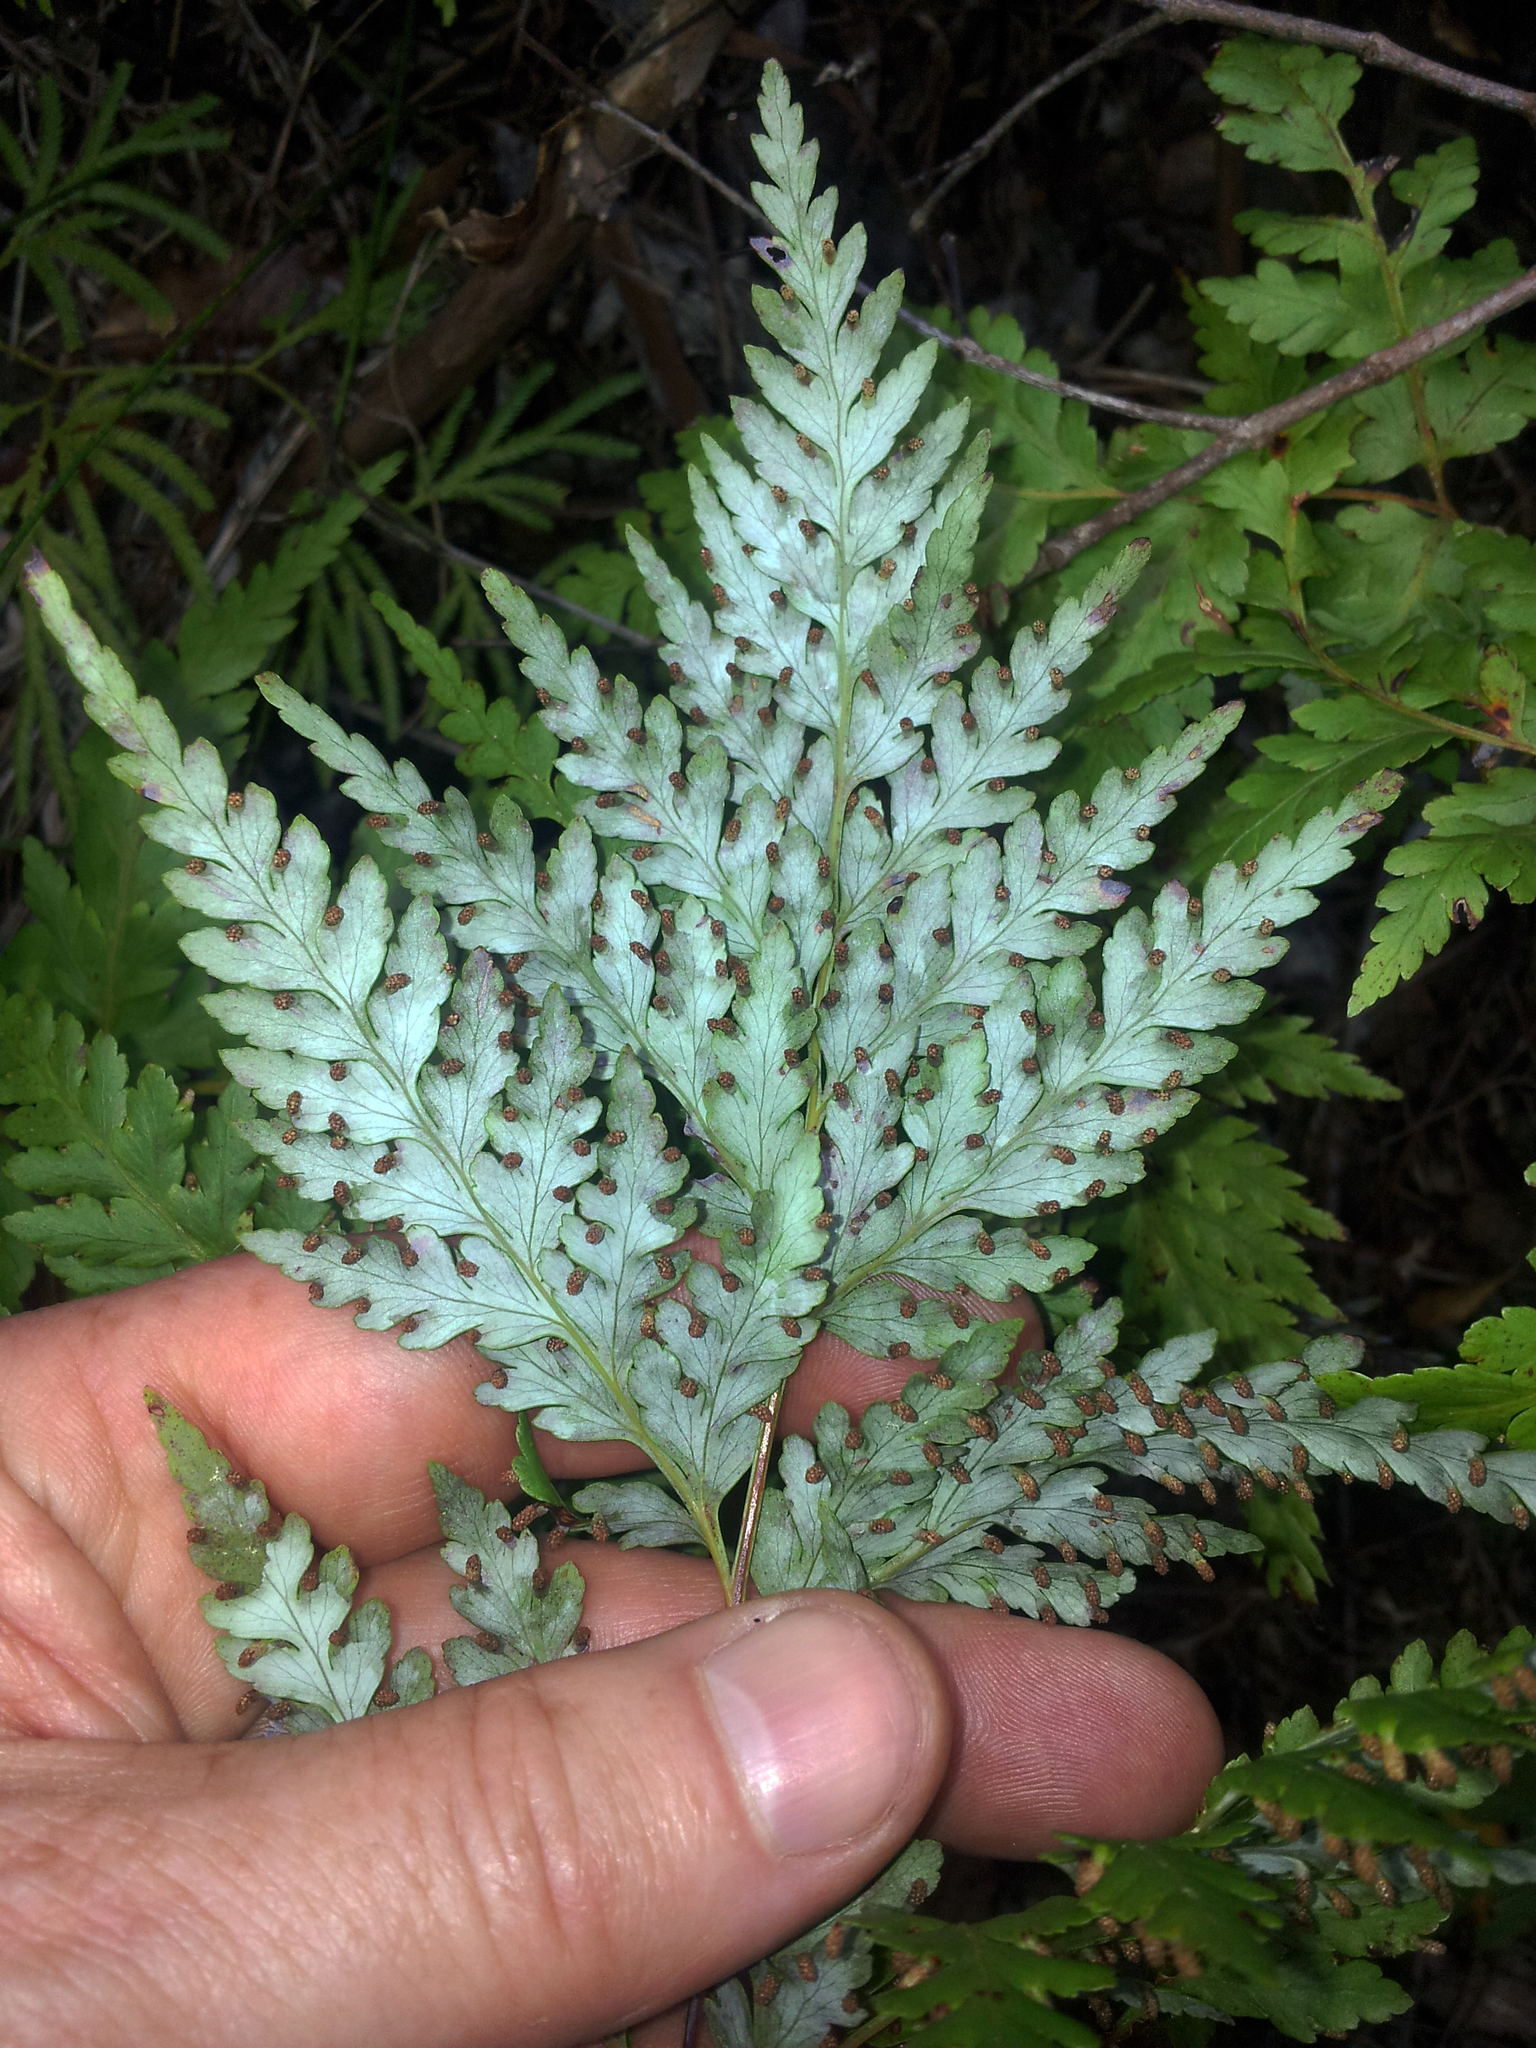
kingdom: Plantae
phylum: Tracheophyta
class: Polypodiopsida
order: Cyatheales
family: Loxsomataceae
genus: Loxsoma
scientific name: Loxsoma cunninghamii
